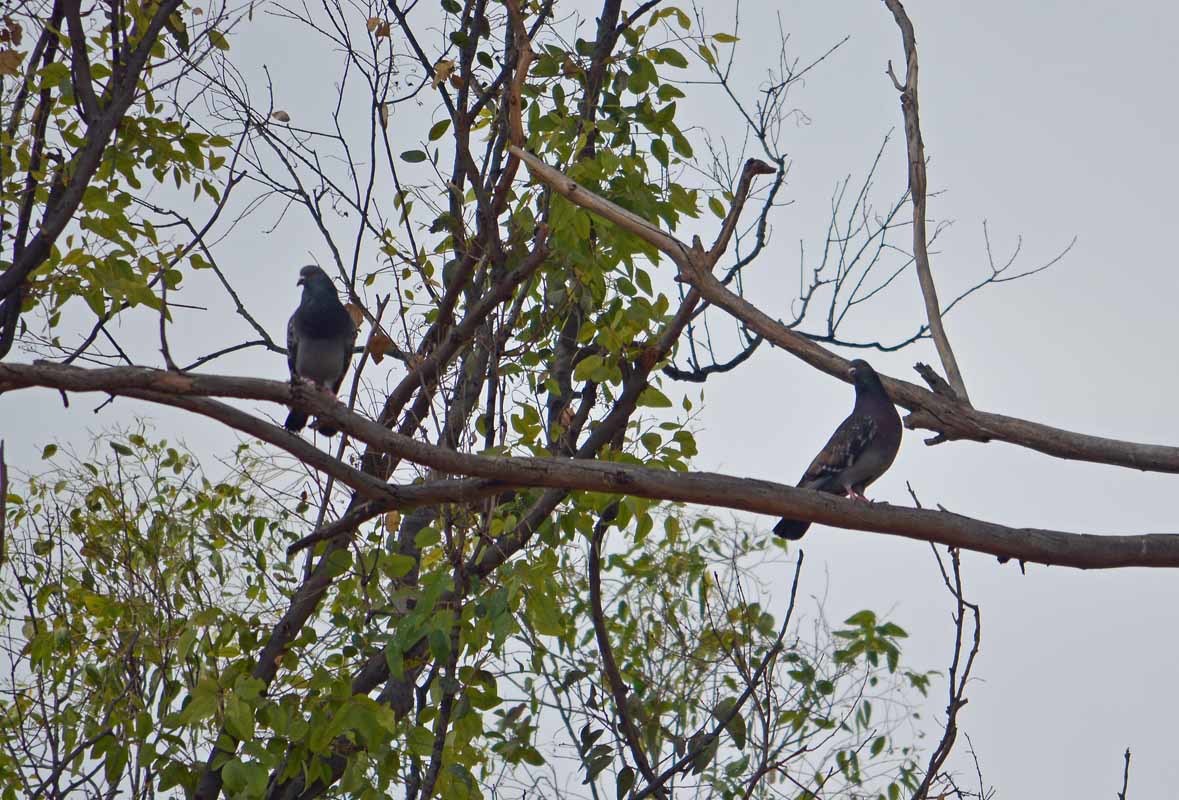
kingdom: Animalia
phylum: Chordata
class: Aves
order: Columbiformes
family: Columbidae
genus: Columba
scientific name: Columba livia
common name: Rock pigeon
